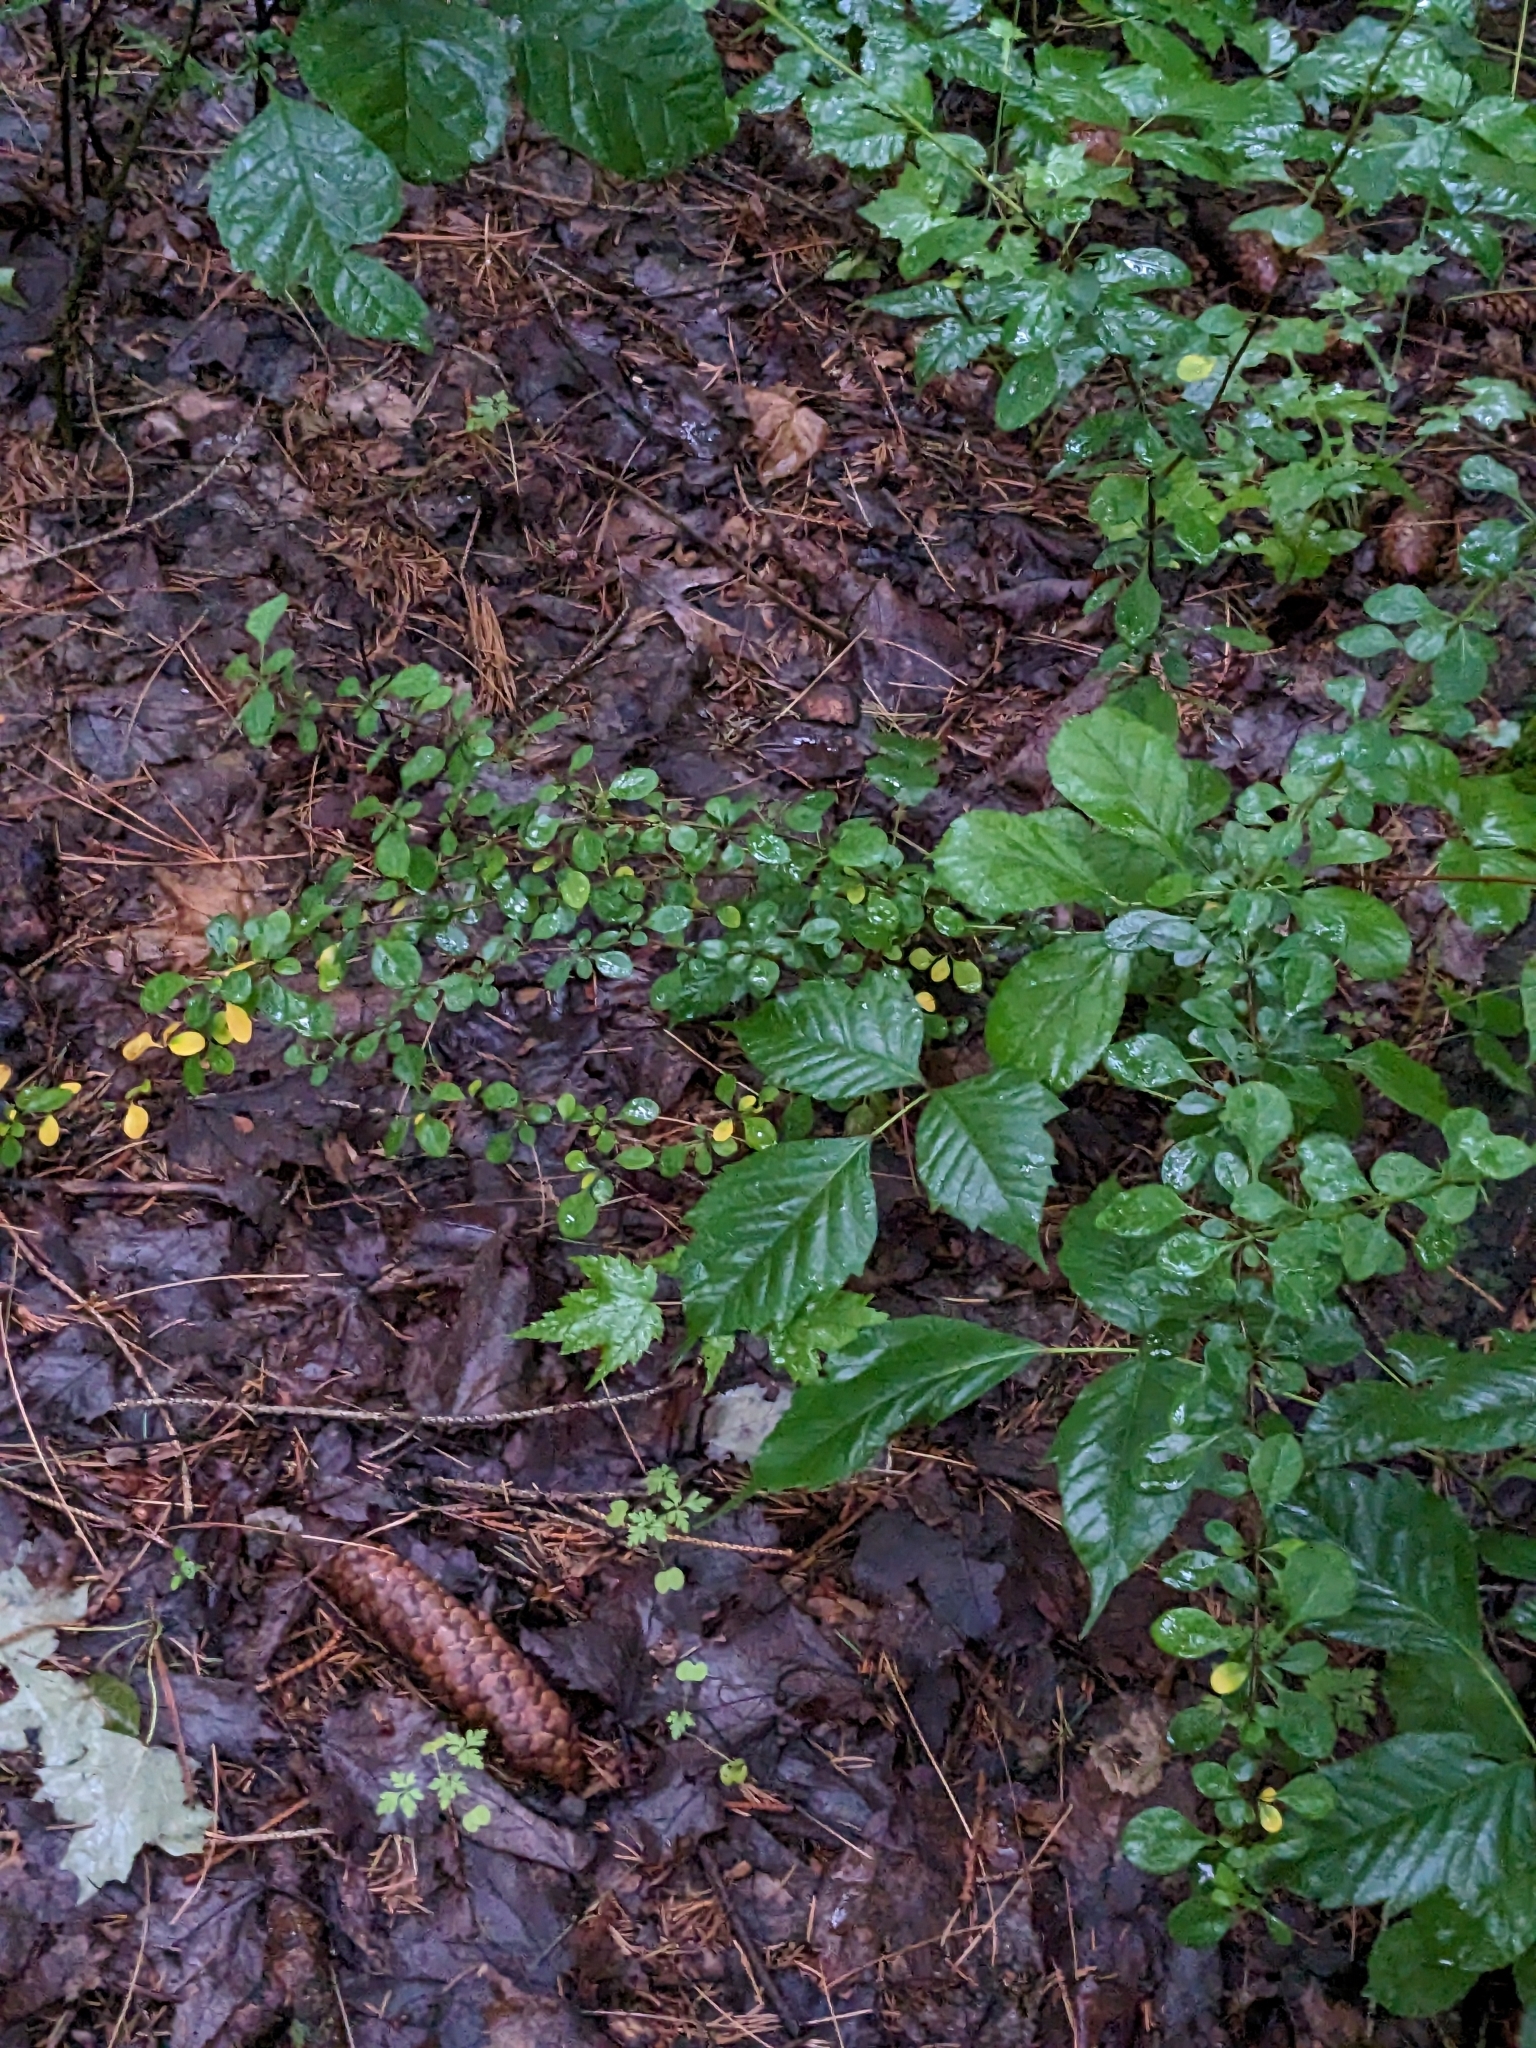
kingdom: Plantae
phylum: Tracheophyta
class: Magnoliopsida
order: Ranunculales
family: Berberidaceae
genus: Berberis
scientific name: Berberis thunbergii
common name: Japanese barberry
